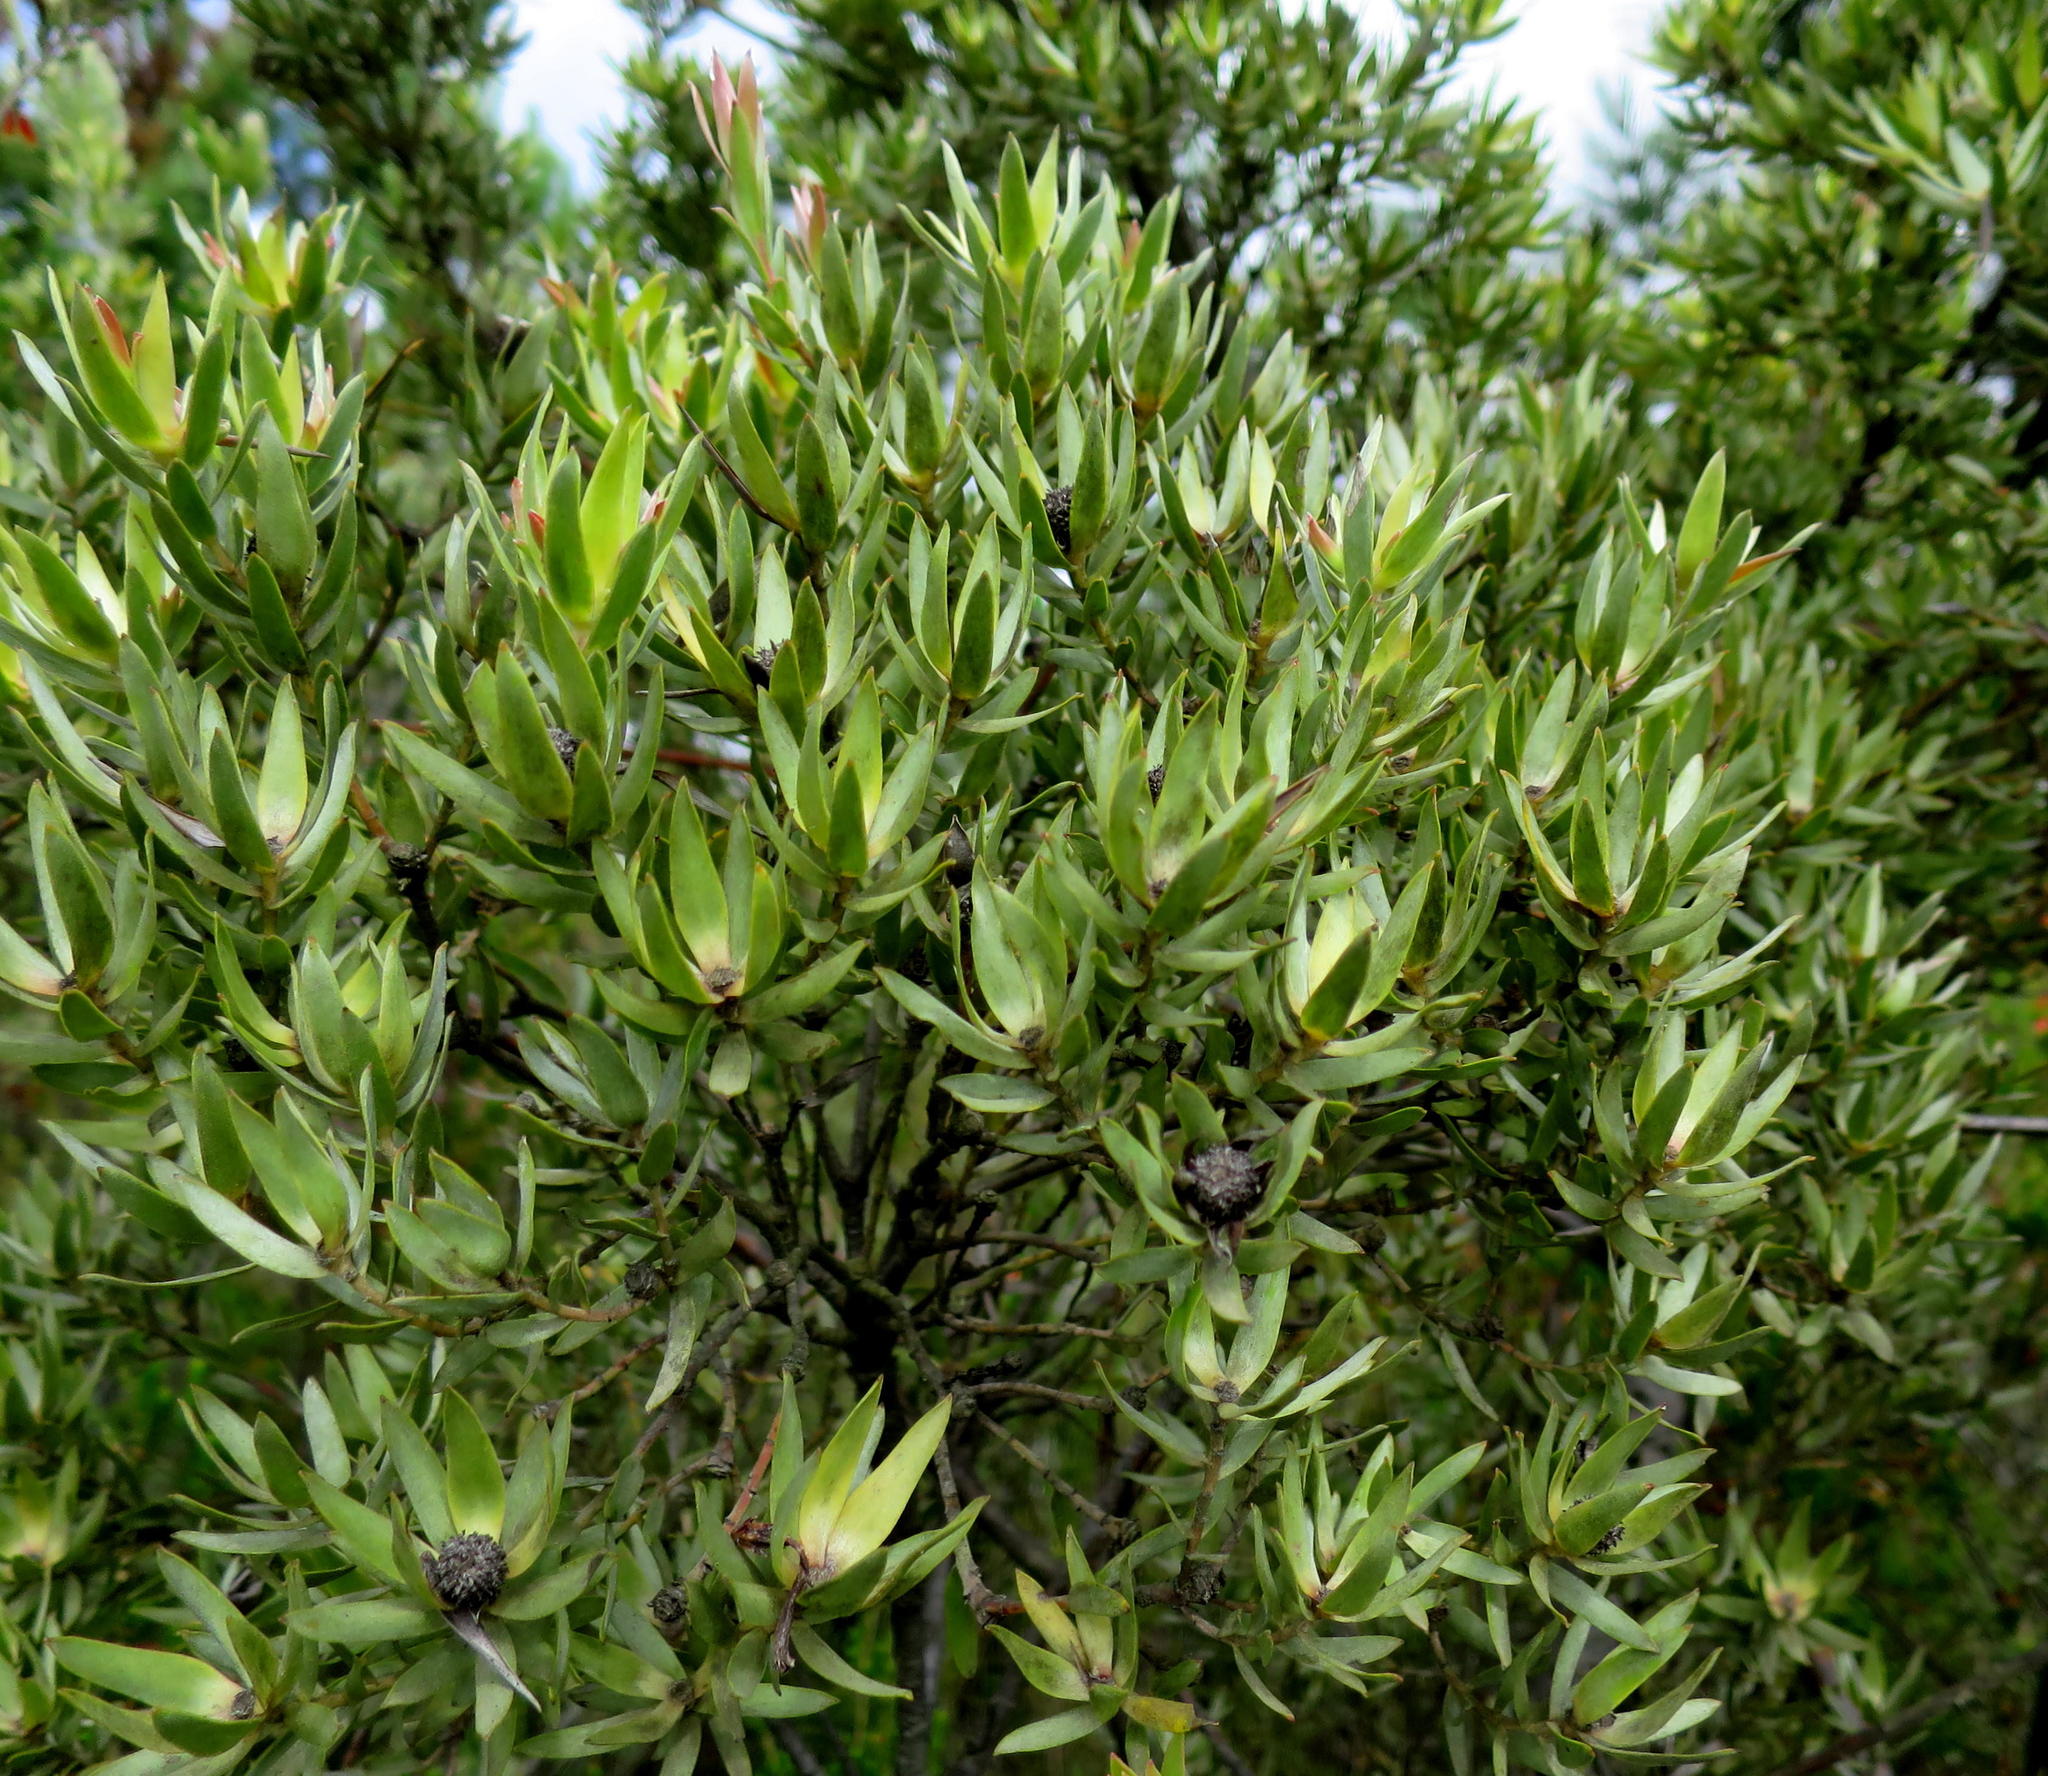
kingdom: Plantae
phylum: Tracheophyta
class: Magnoliopsida
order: Proteales
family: Proteaceae
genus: Leucadendron
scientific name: Leucadendron uliginosum
